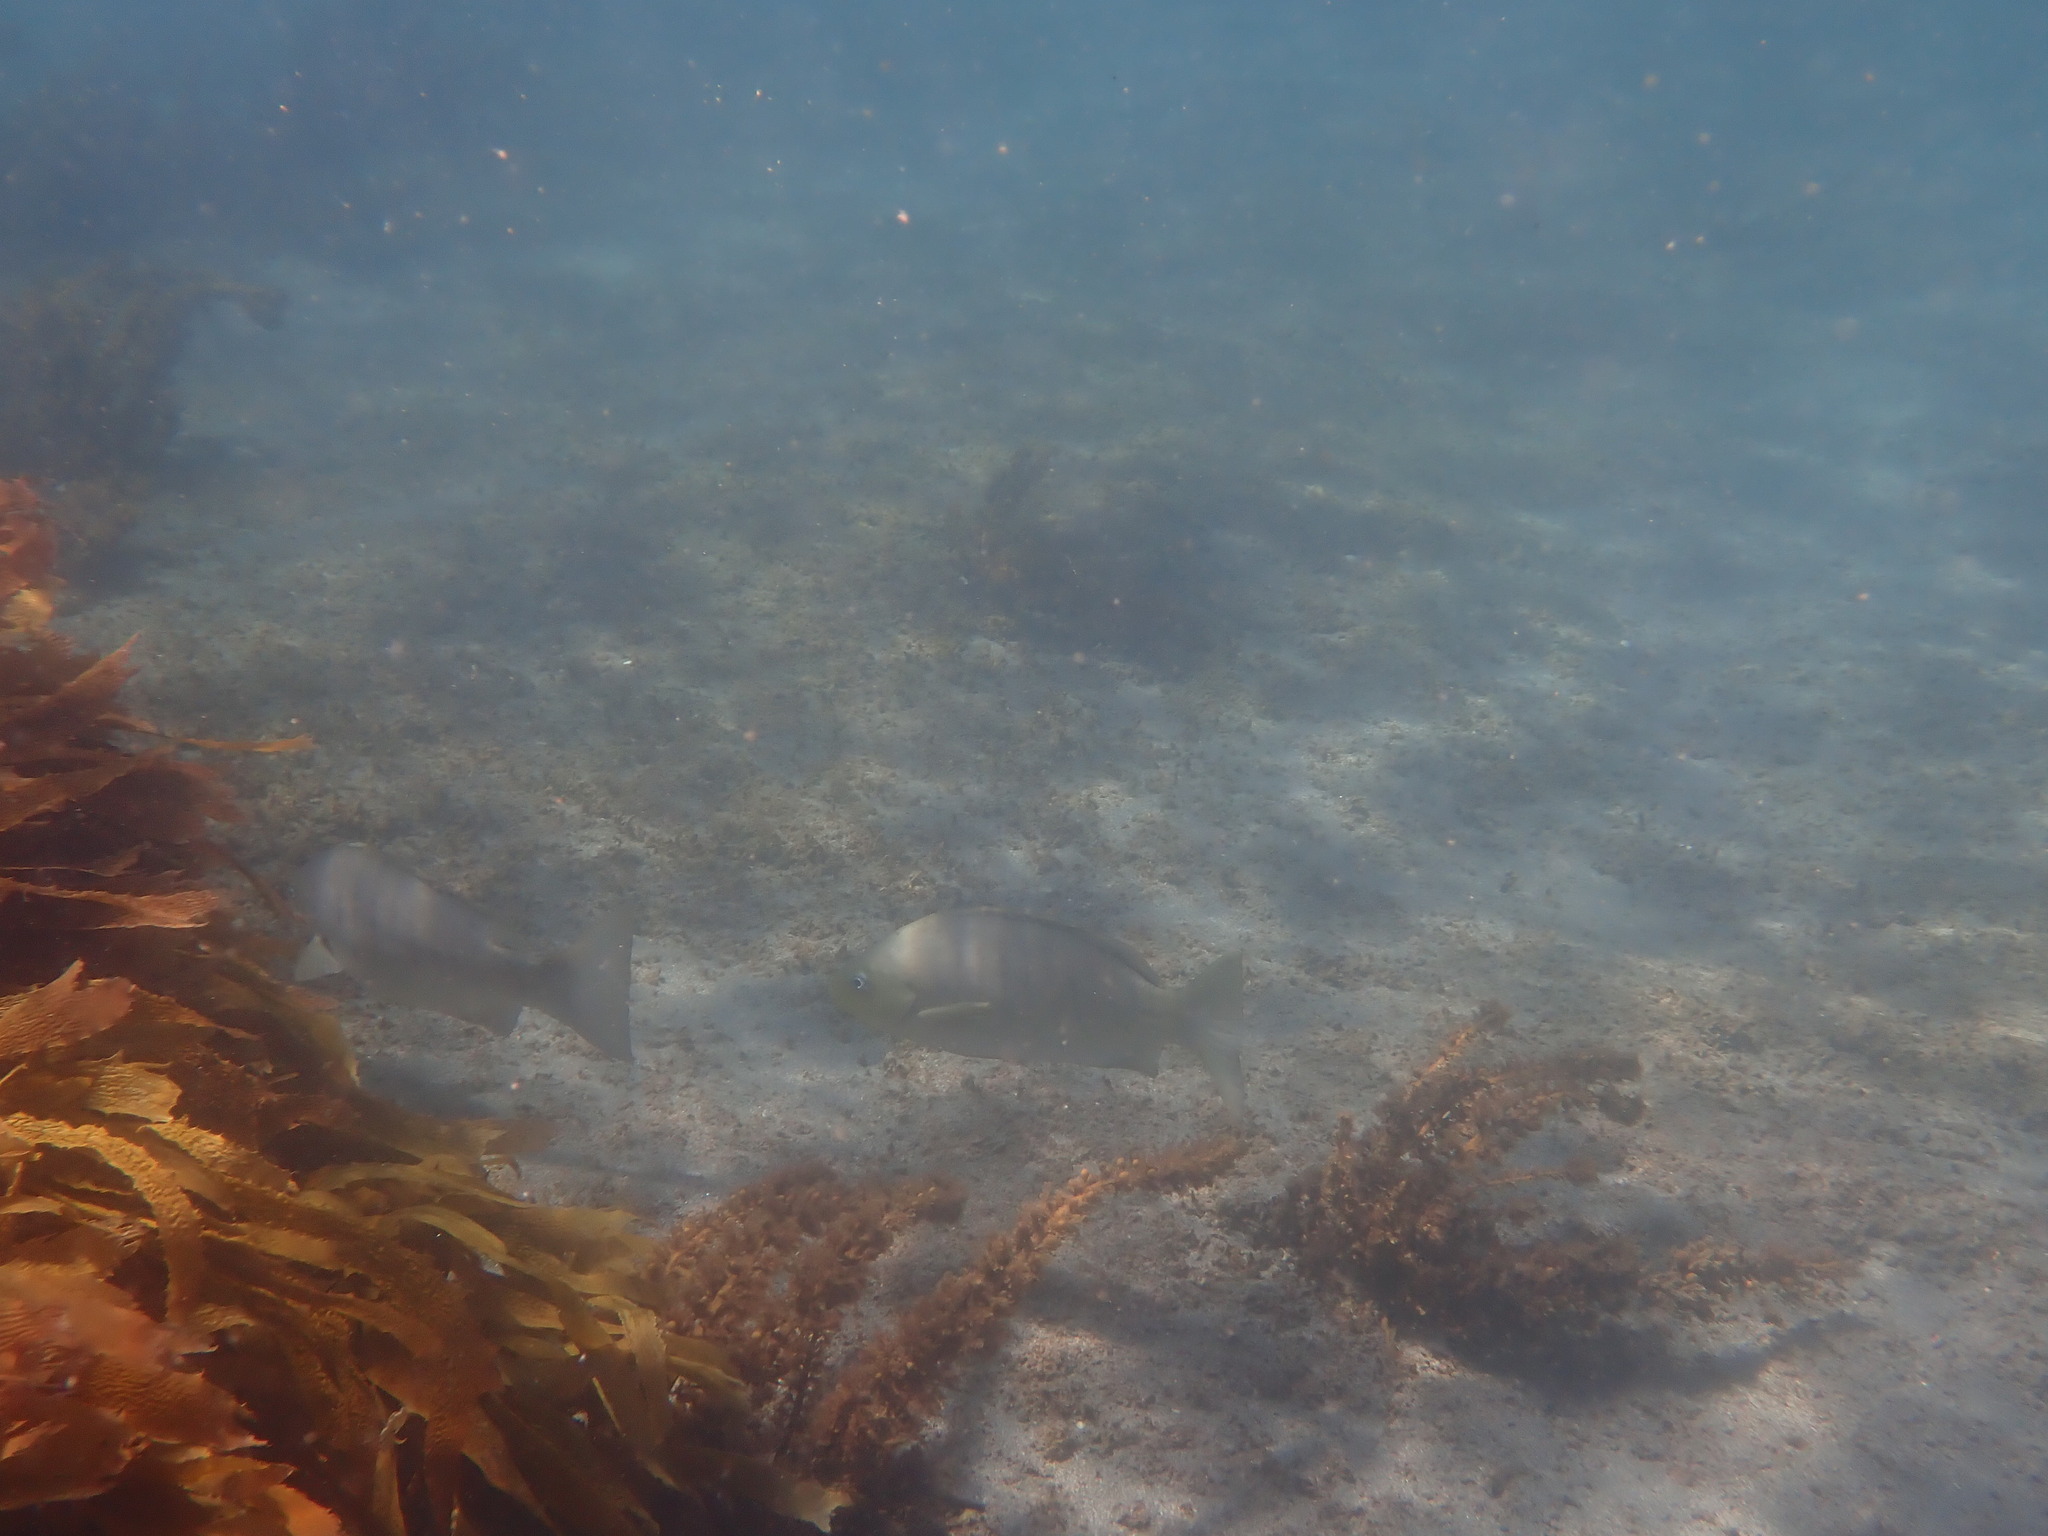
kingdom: Animalia
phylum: Chordata
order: Perciformes
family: Kyphosidae
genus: Girella
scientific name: Girella tricuspidata
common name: Parore
